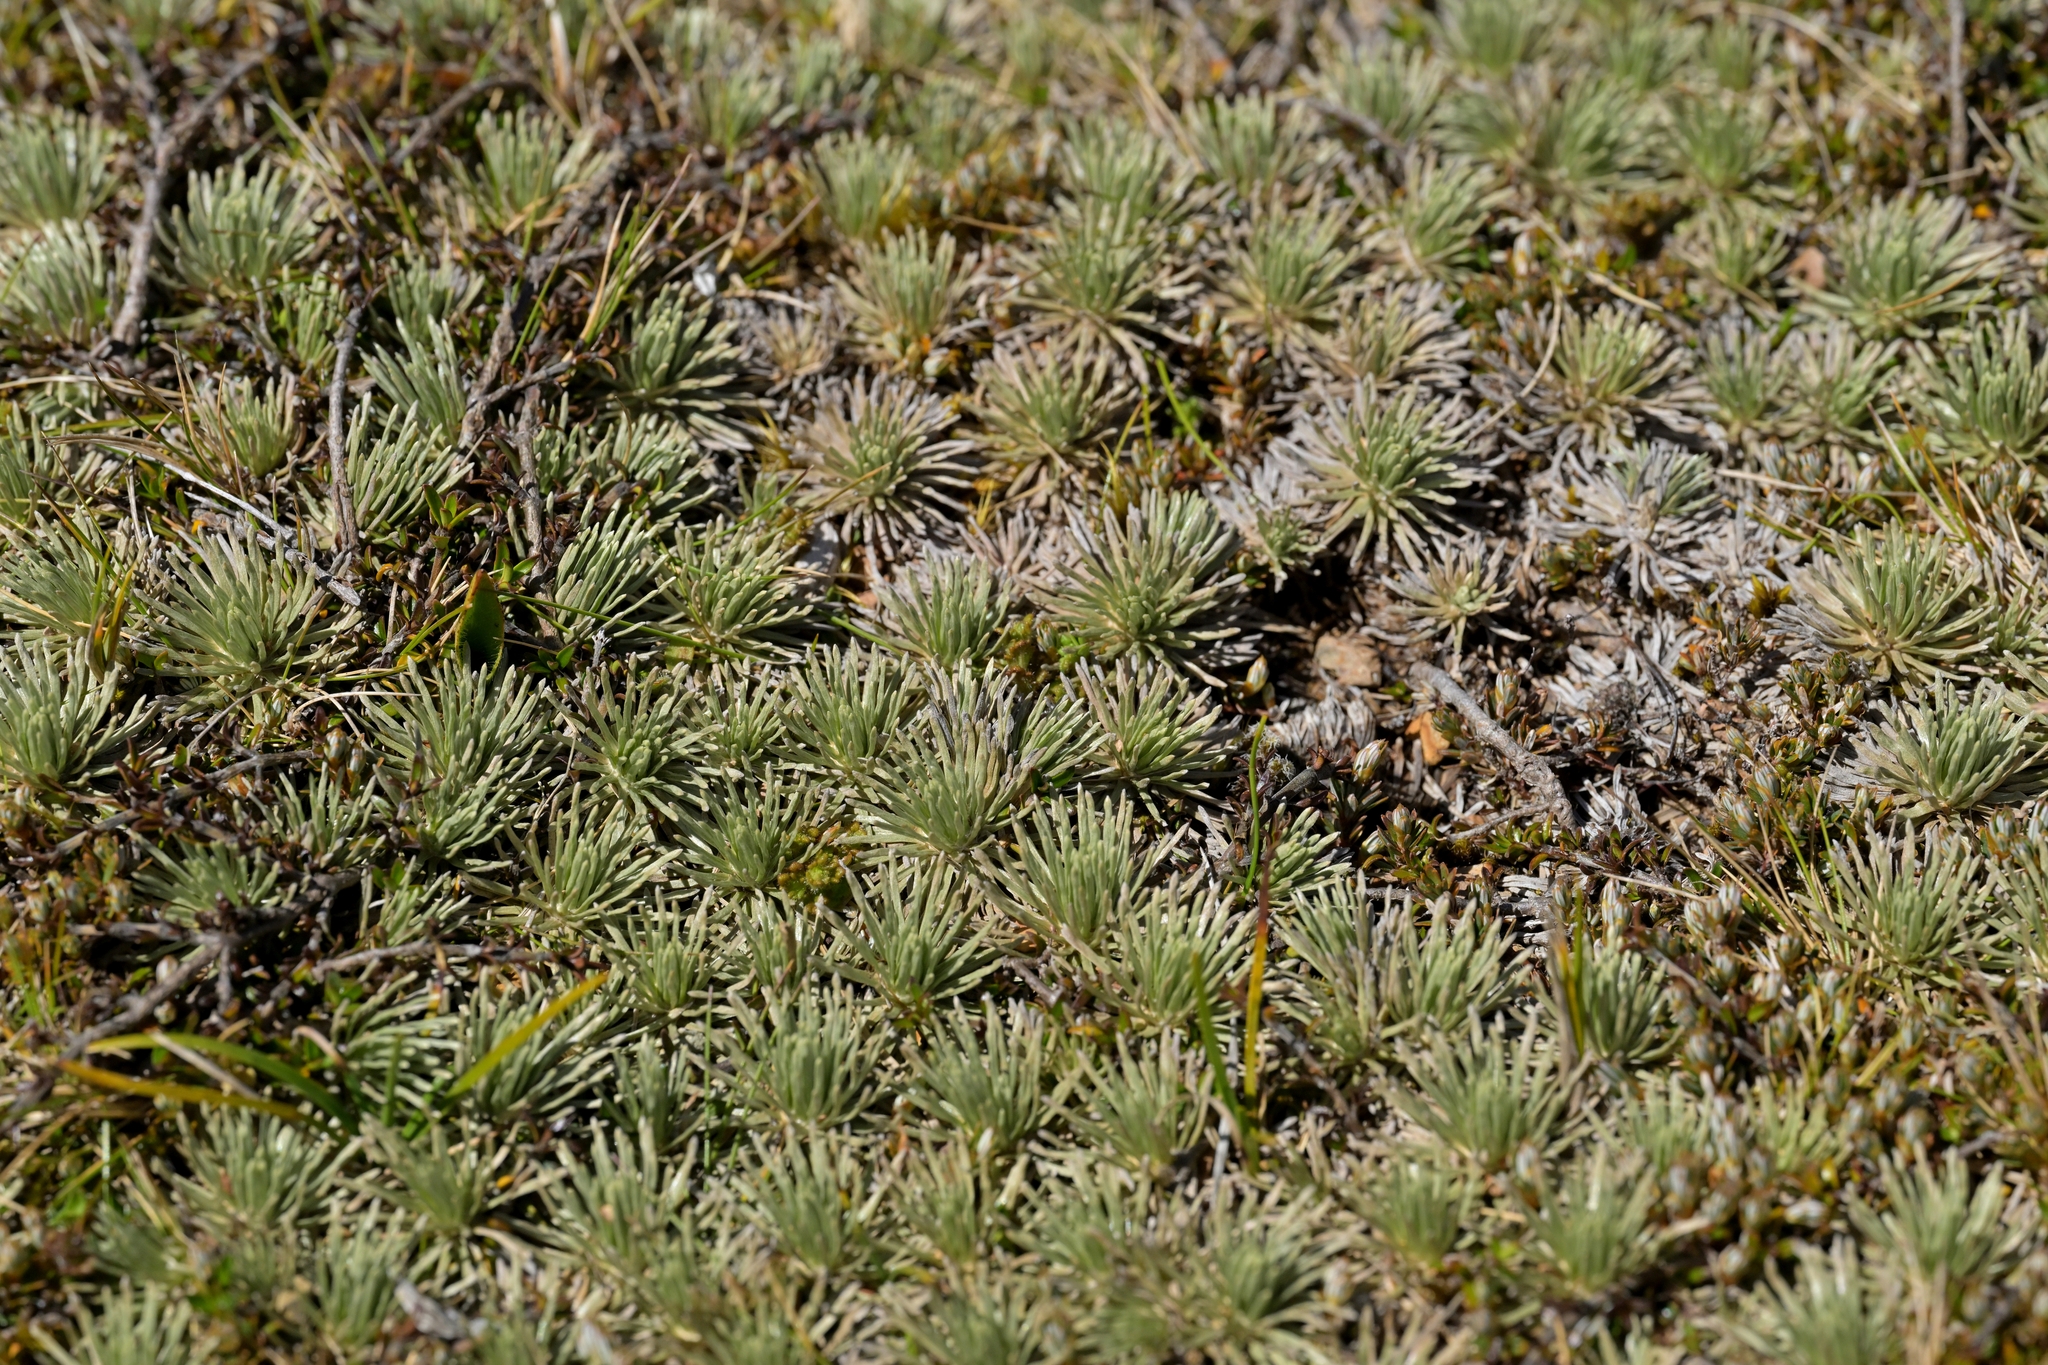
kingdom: Plantae
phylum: Tracheophyta
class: Magnoliopsida
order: Asterales
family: Asteraceae
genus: Celmisia
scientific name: Celmisia sessiliflora
